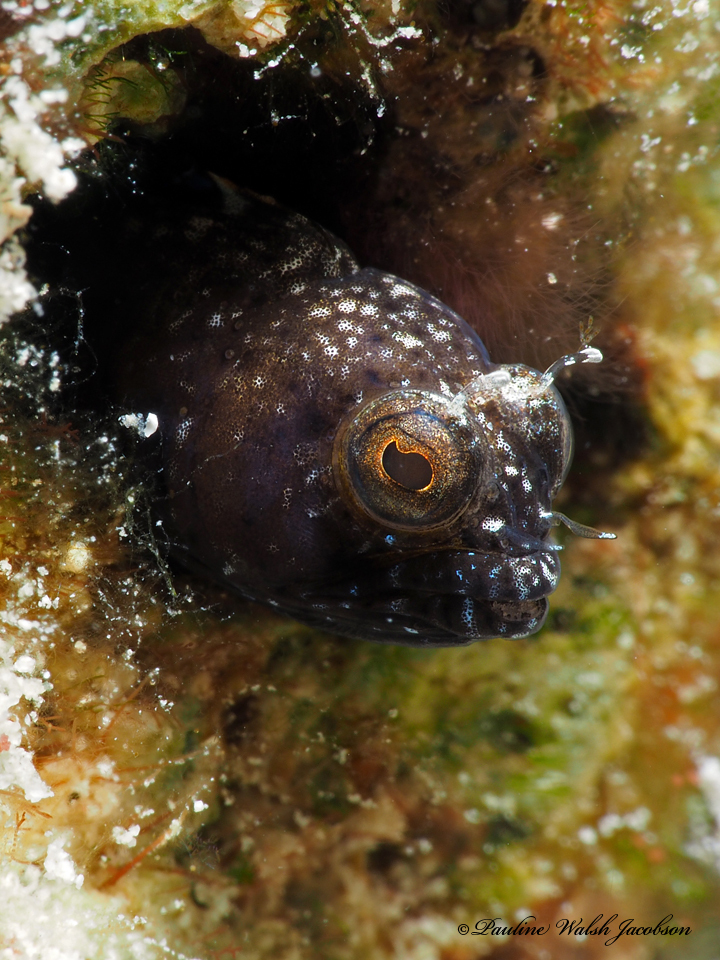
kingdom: Animalia
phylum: Chordata
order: Perciformes
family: Chaenopsidae
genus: Emblemaria
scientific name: Emblemaria pandionis
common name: Sailfin blenny
